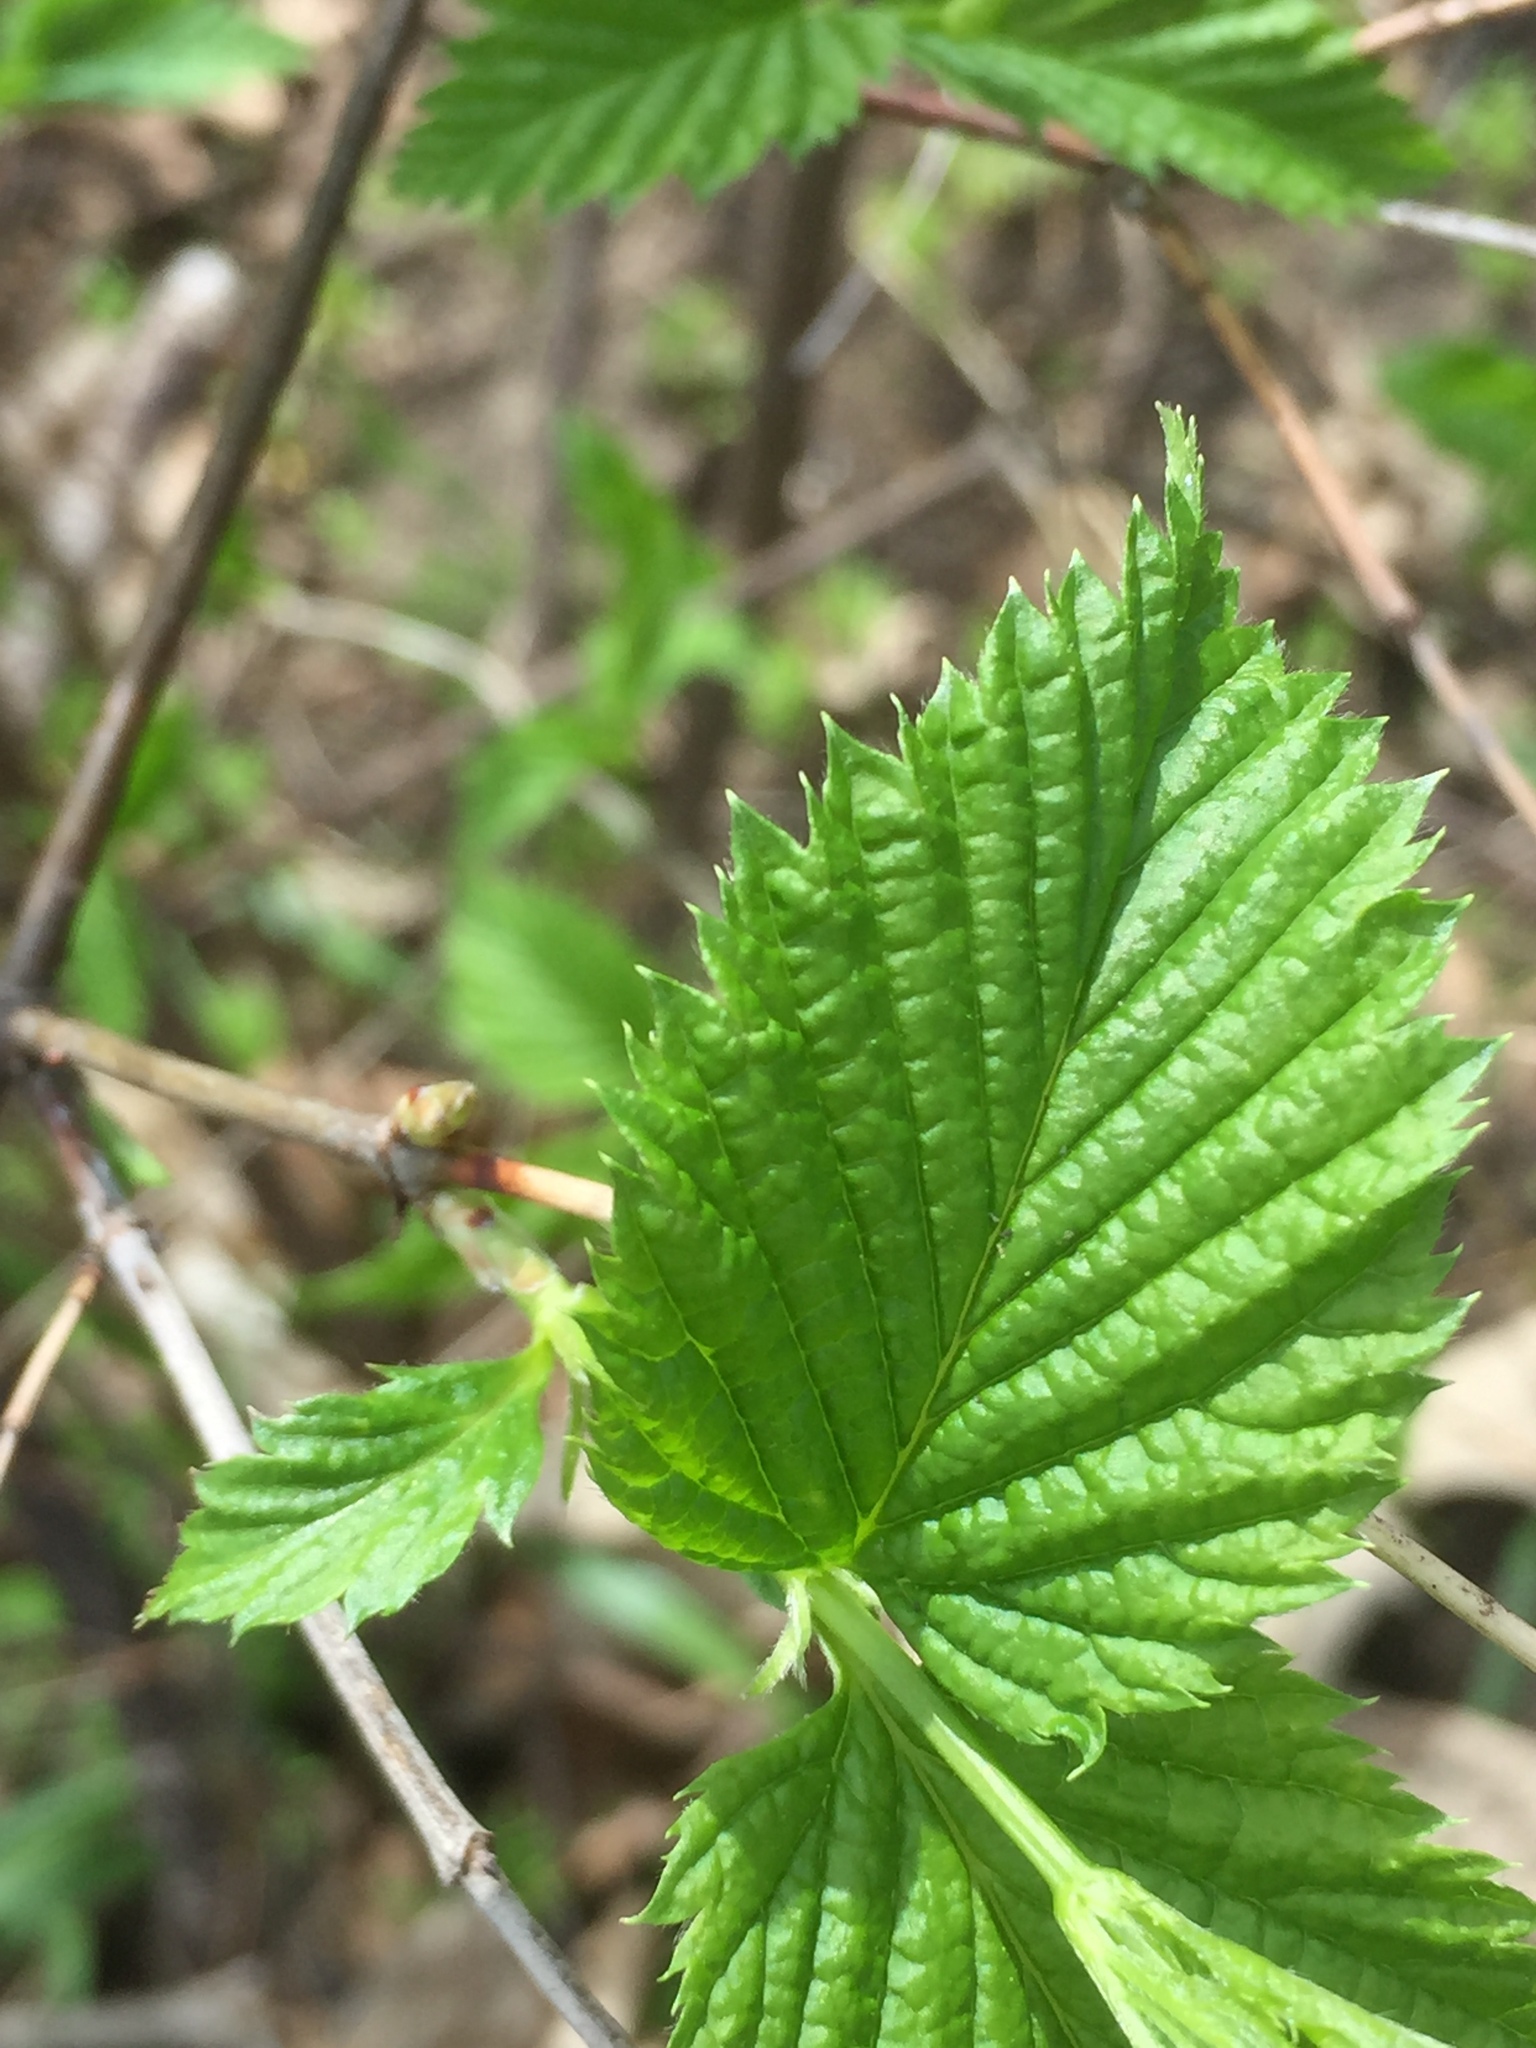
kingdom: Plantae
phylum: Tracheophyta
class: Magnoliopsida
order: Rosales
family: Rosaceae
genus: Rhodotypos
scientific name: Rhodotypos scandens
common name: Jetbead
